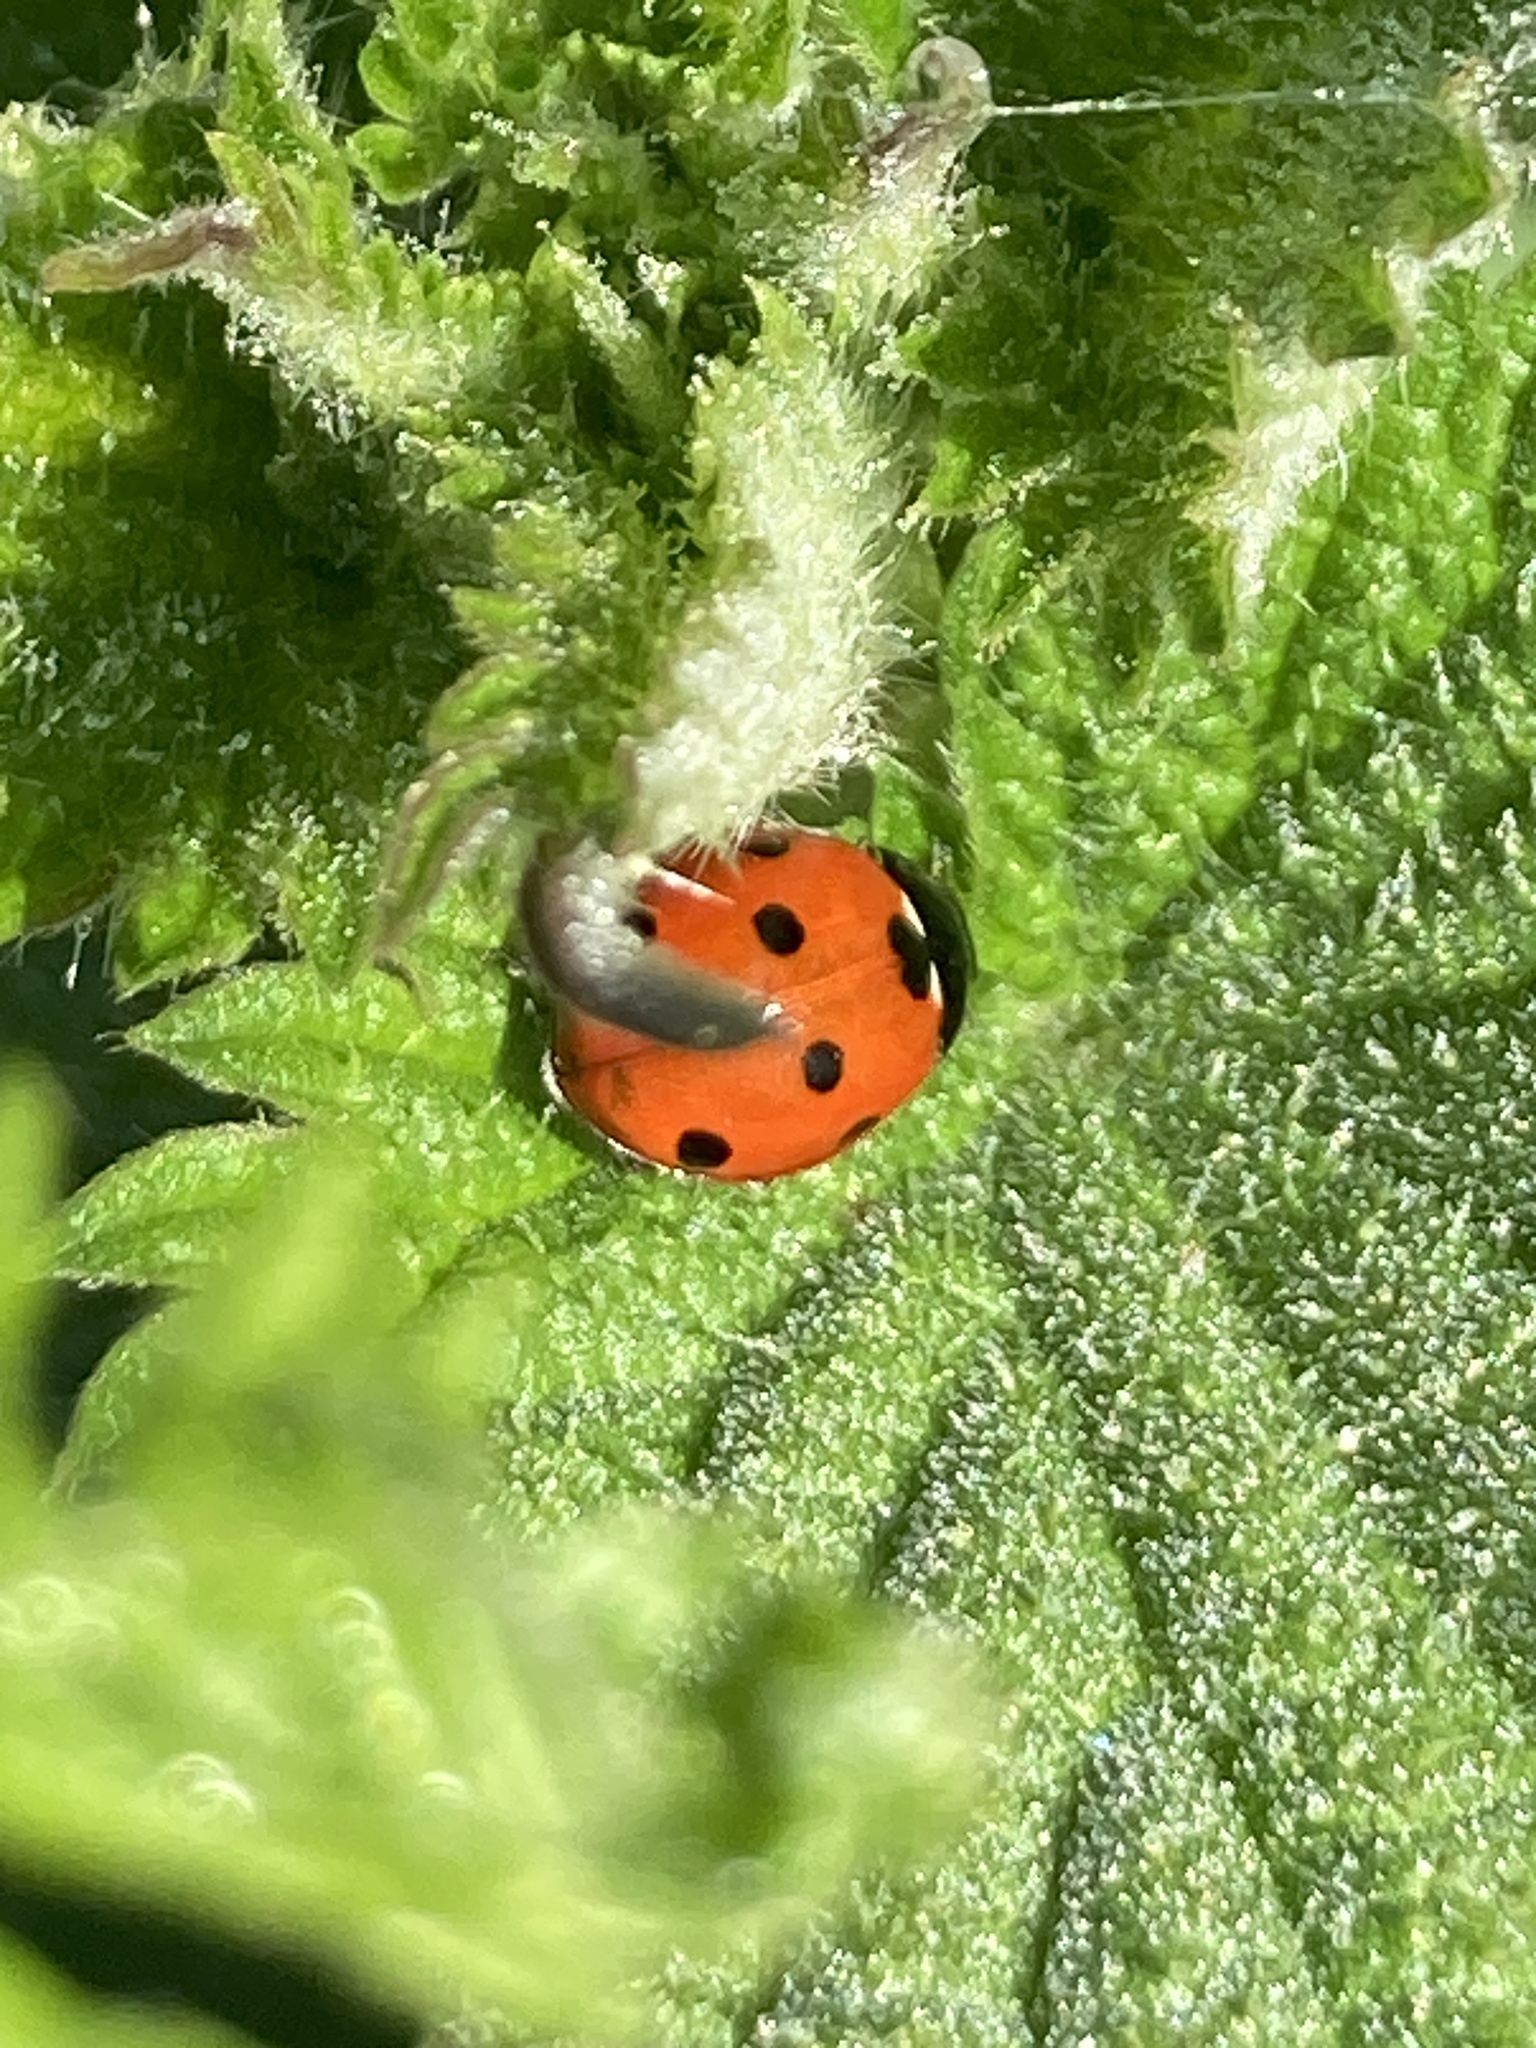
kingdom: Animalia
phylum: Arthropoda
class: Insecta
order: Coleoptera
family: Coccinellidae
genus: Coccinella
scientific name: Coccinella septempunctata
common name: Sevenspotted lady beetle
